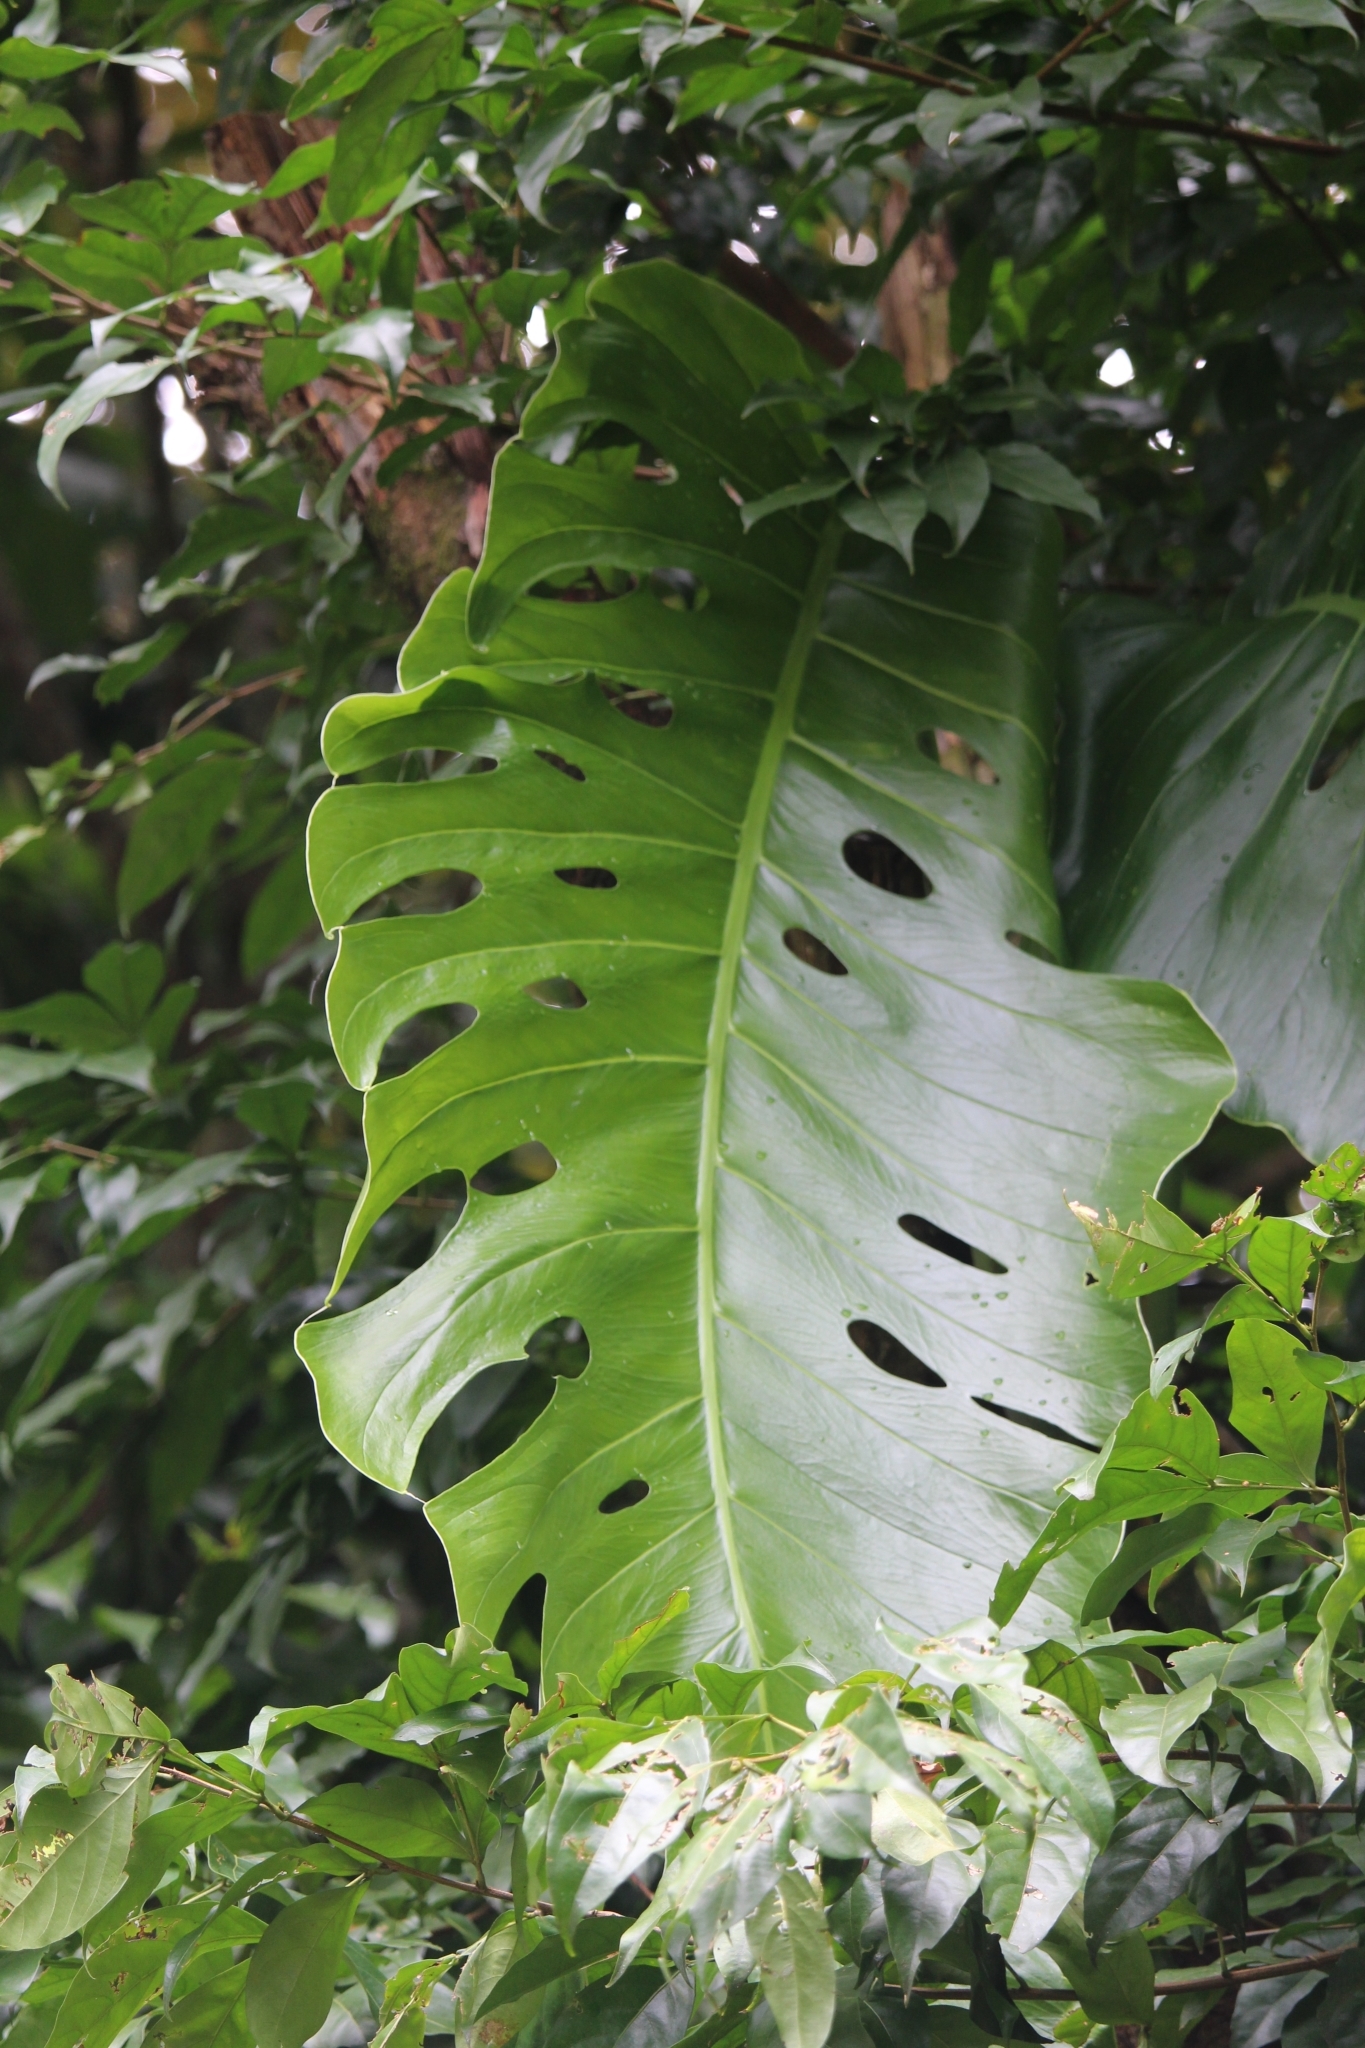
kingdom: Plantae
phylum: Tracheophyta
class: Liliopsida
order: Alismatales
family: Araceae
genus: Monstera
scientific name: Monstera dubia
